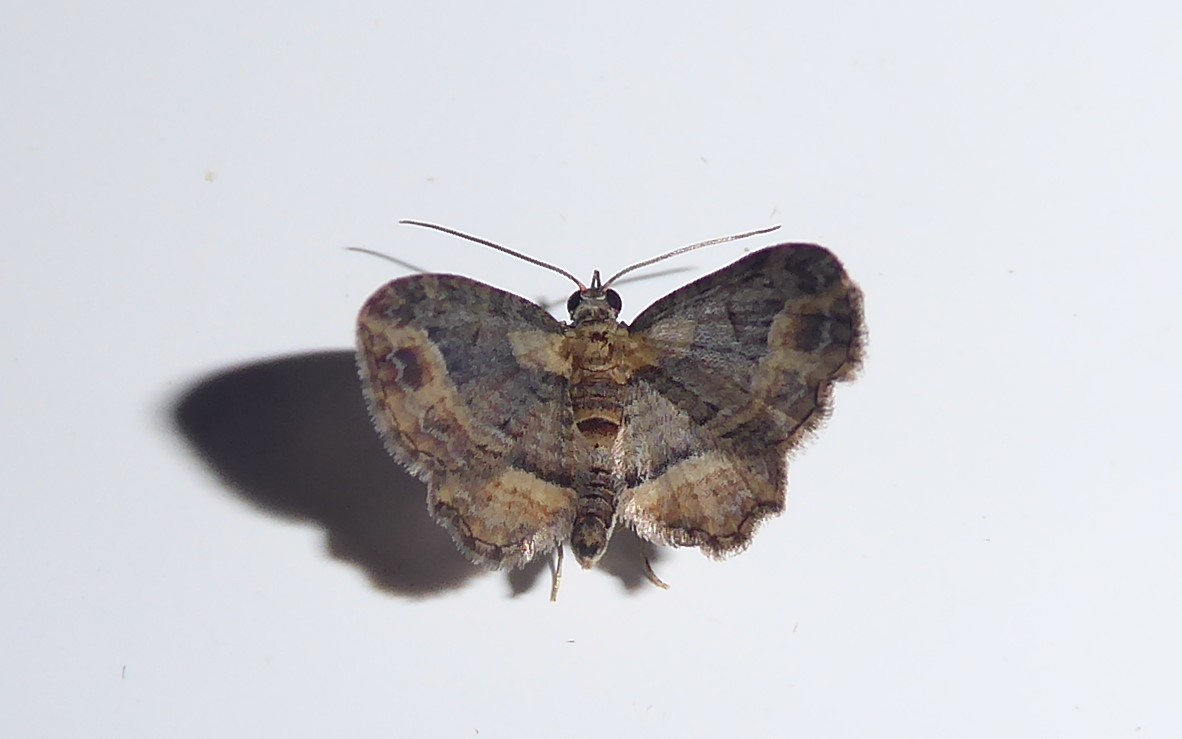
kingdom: Animalia
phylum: Arthropoda
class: Insecta
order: Lepidoptera
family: Geometridae
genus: Chloroclystis
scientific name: Chloroclystis filata
